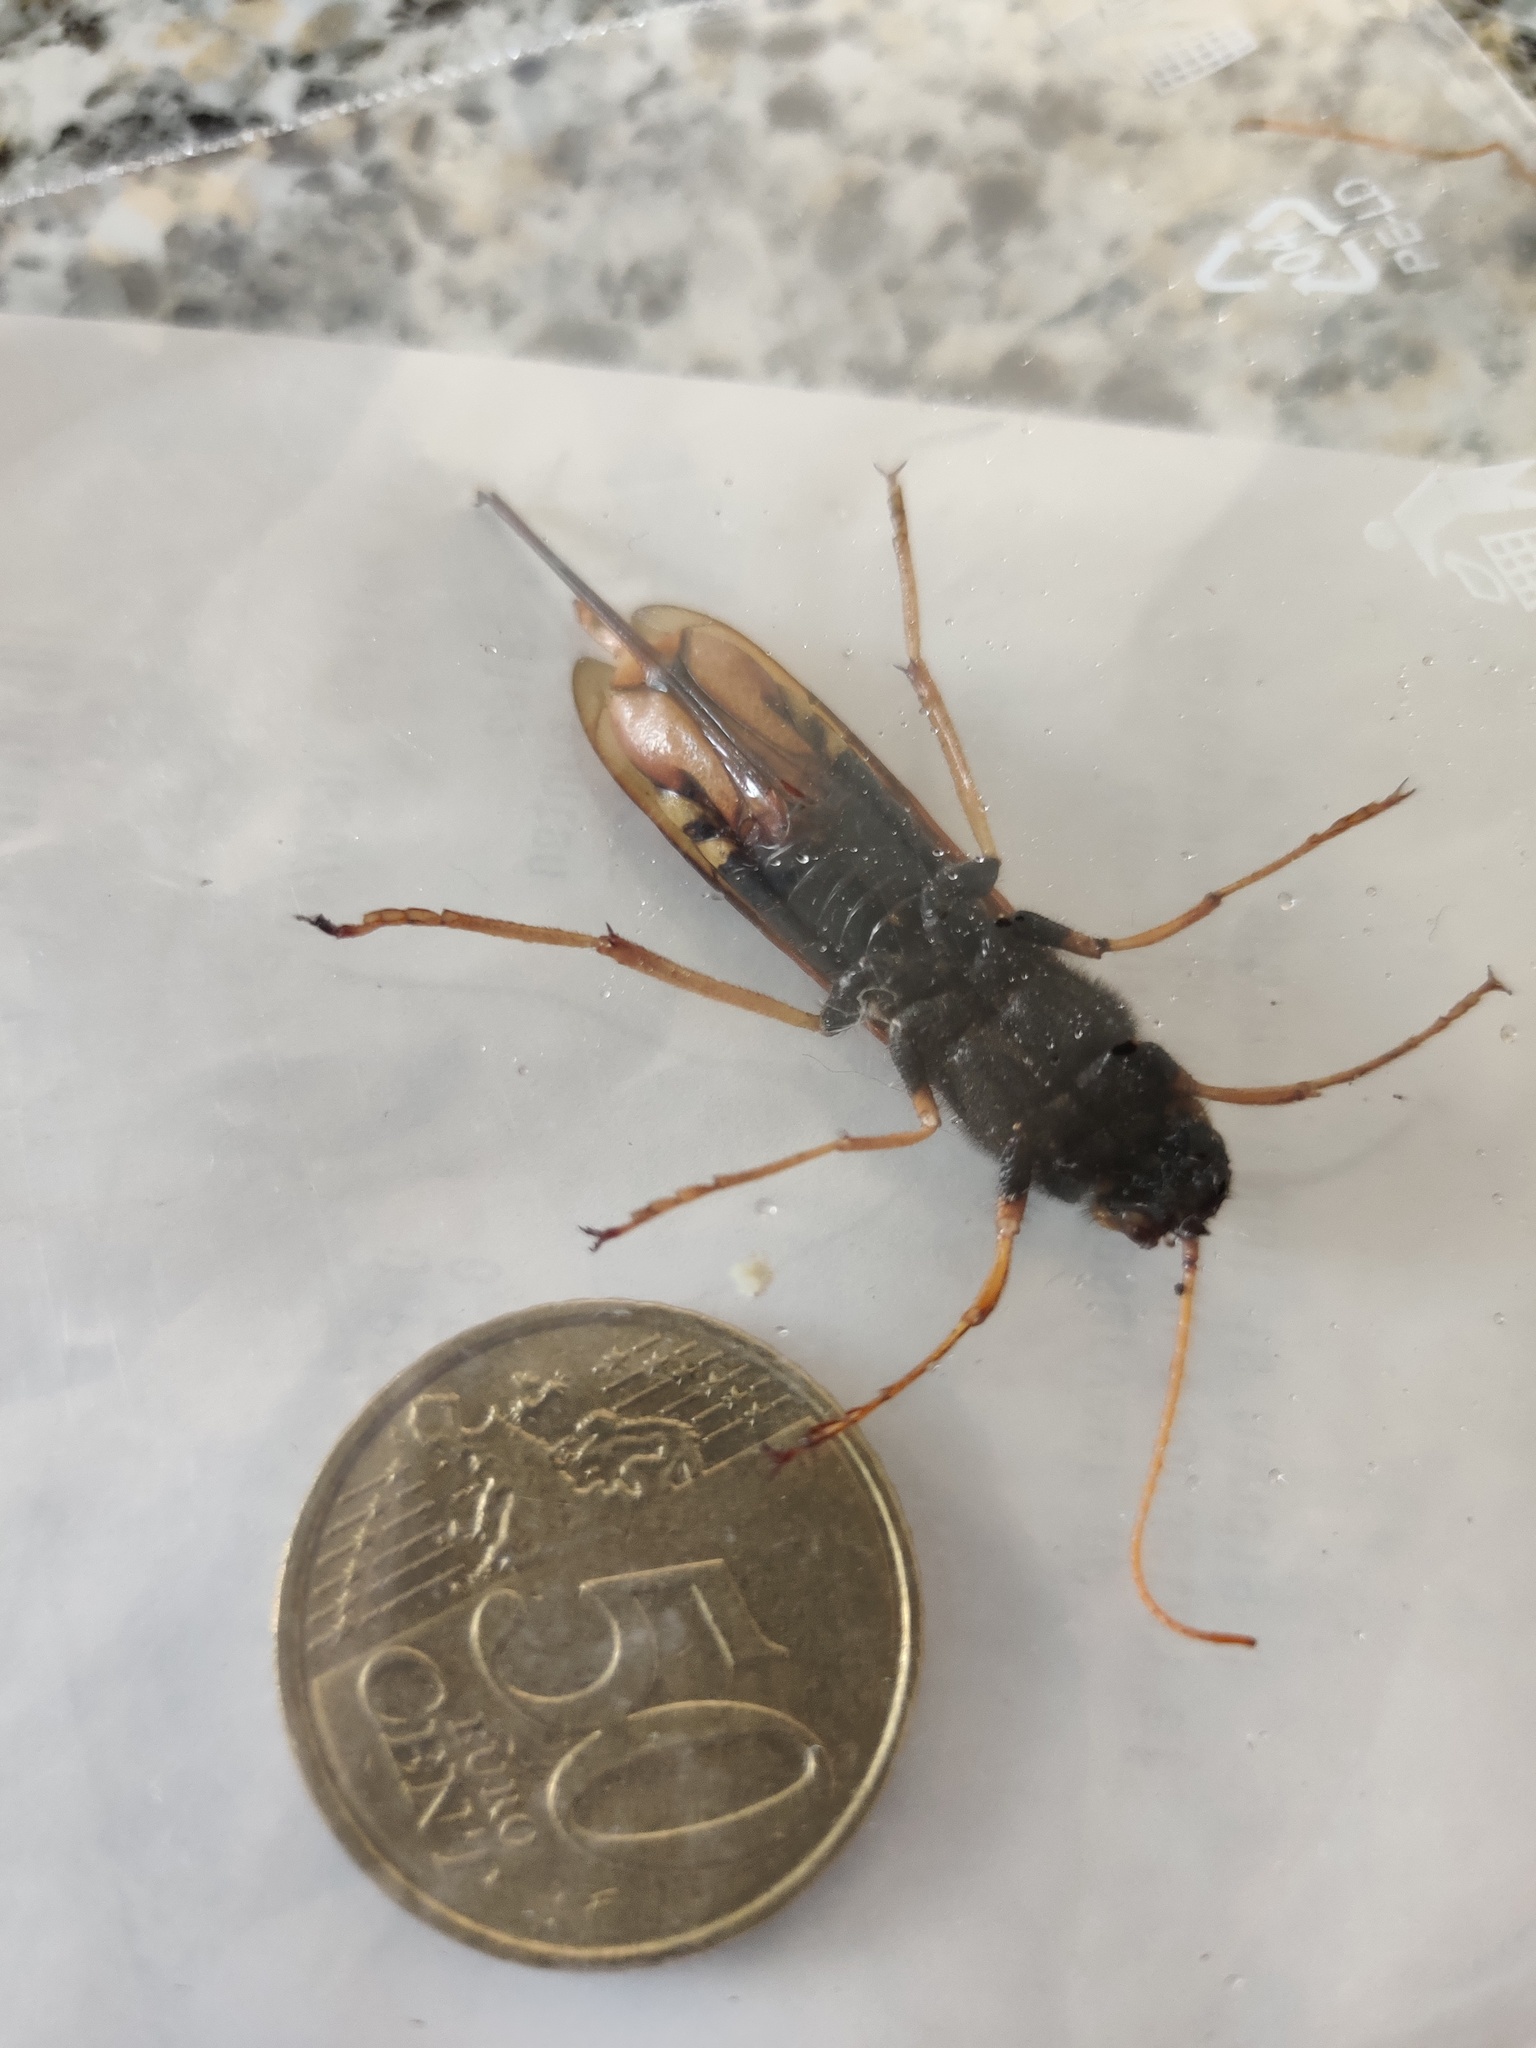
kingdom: Animalia
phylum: Arthropoda
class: Insecta
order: Hymenoptera
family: Siricidae
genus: Urocerus
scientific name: Urocerus gigas
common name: Giant woodwasp
